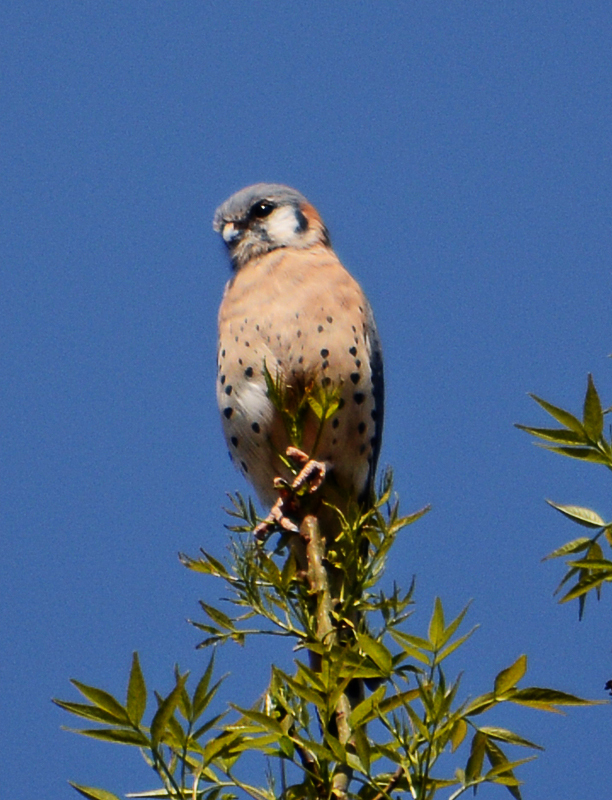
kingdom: Animalia
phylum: Chordata
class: Aves
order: Falconiformes
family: Falconidae
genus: Falco
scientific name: Falco sparverius
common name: American kestrel
